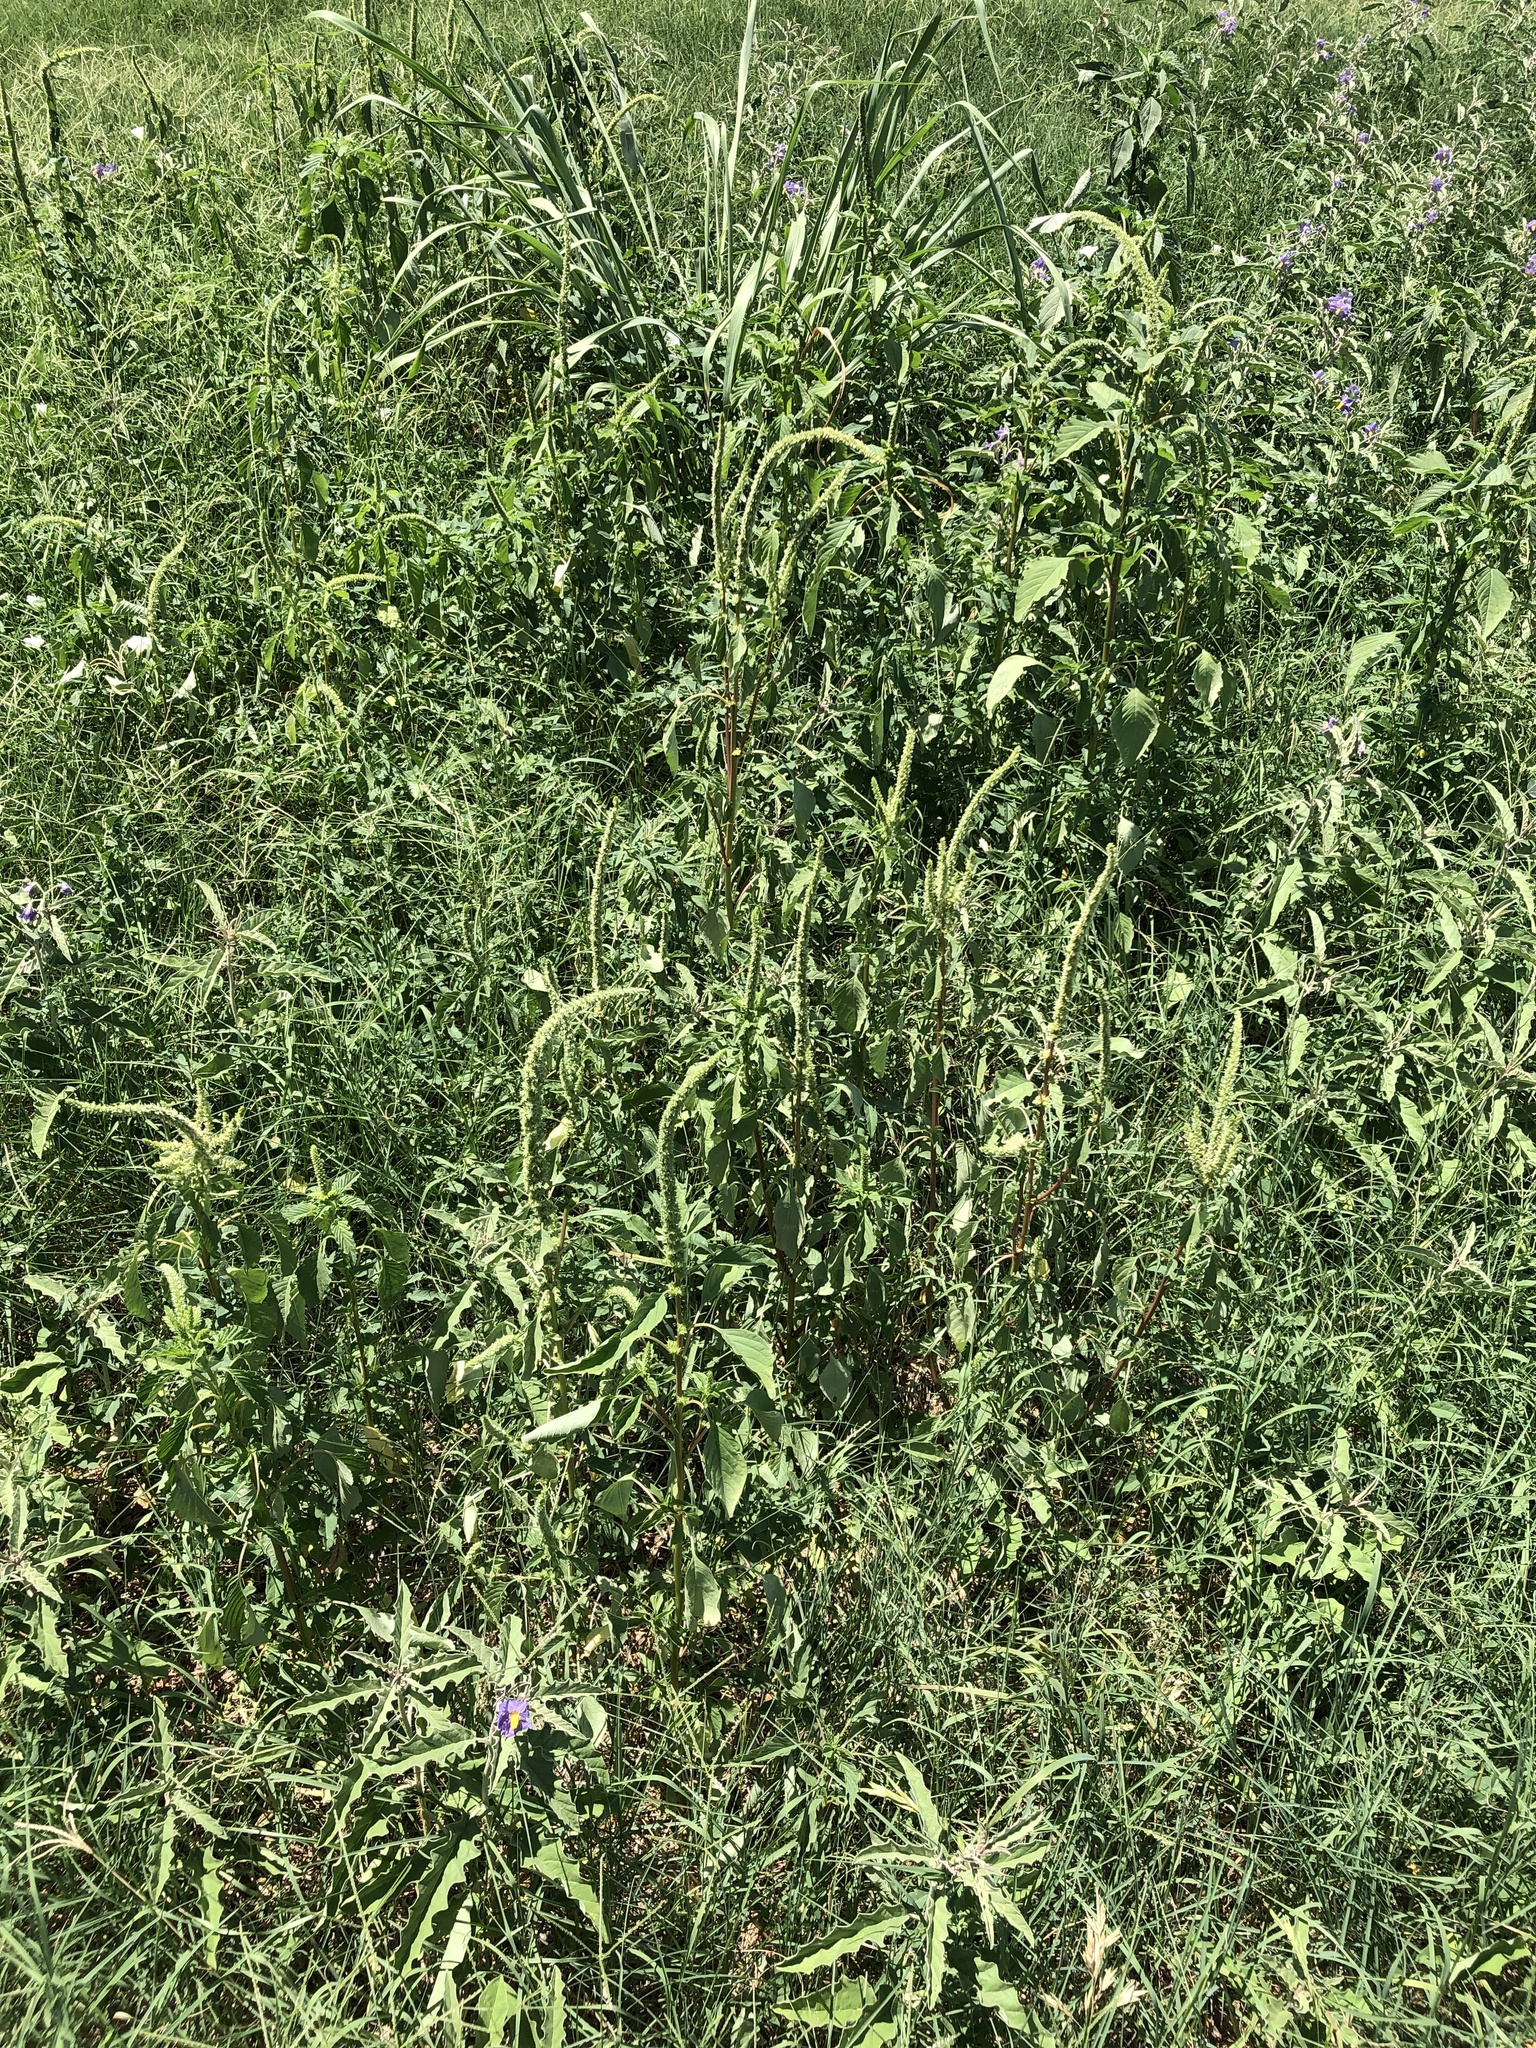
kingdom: Plantae
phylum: Tracheophyta
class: Magnoliopsida
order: Caryophyllales
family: Amaranthaceae
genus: Amaranthus
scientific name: Amaranthus palmeri
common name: Dioecious amaranth
